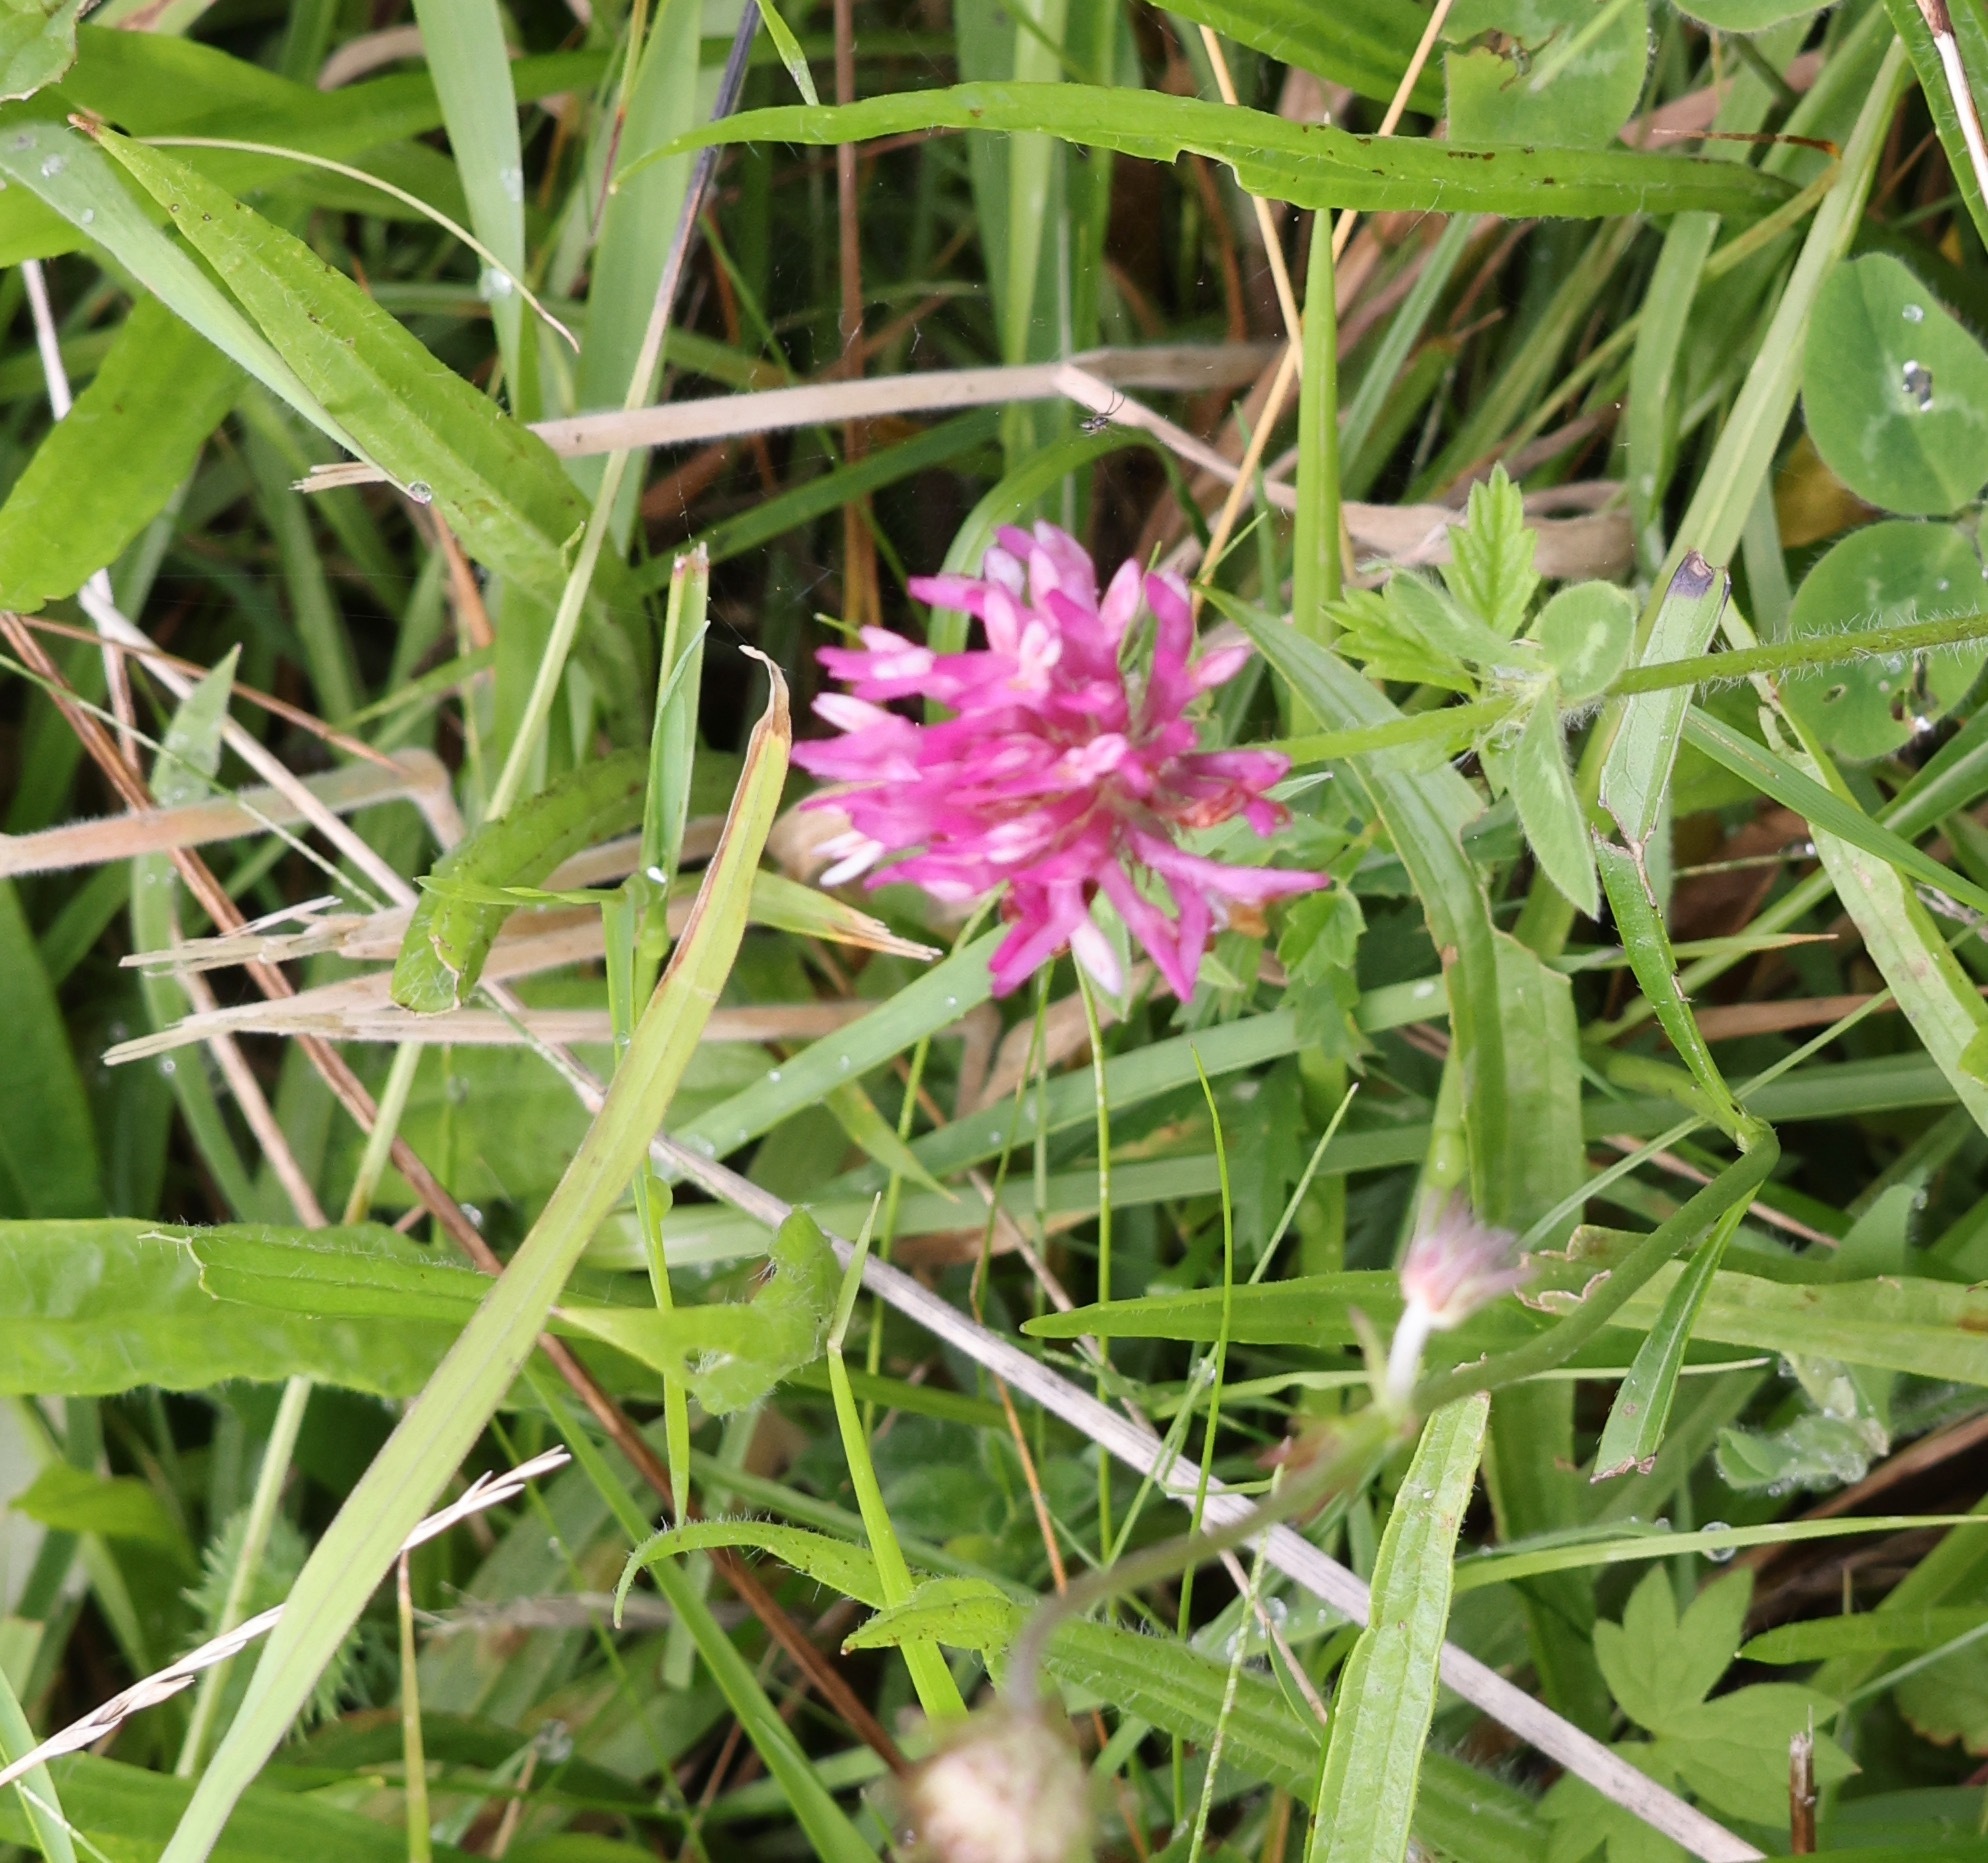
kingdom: Plantae
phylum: Tracheophyta
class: Magnoliopsida
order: Fabales
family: Fabaceae
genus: Trifolium
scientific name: Trifolium pratense
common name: Red clover
